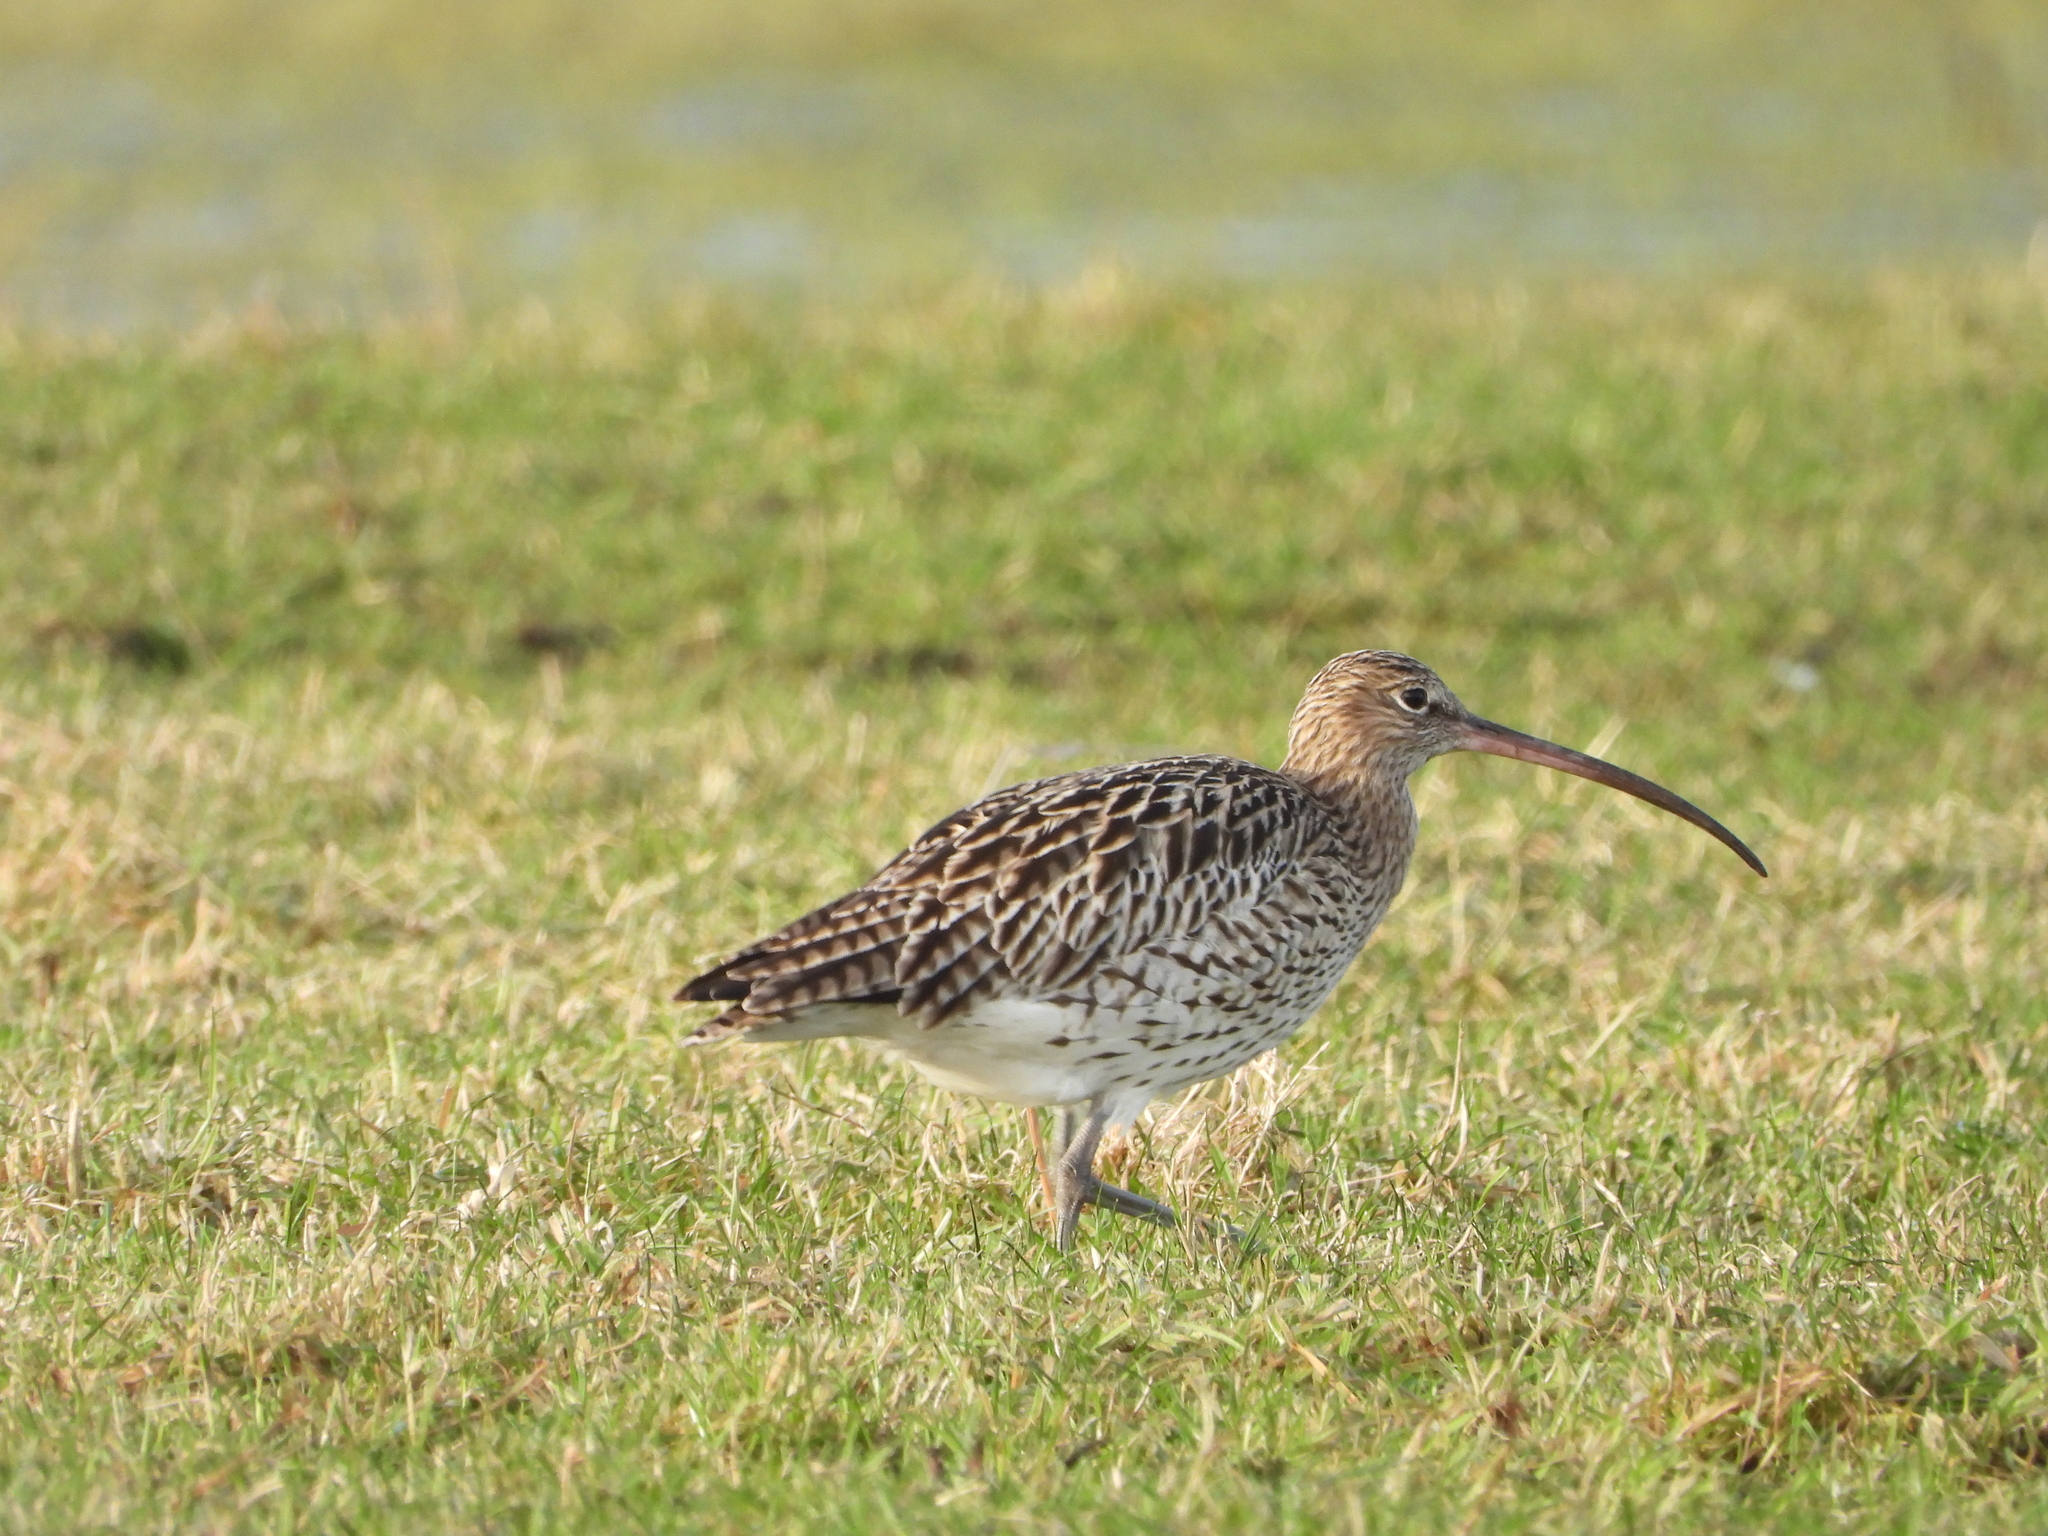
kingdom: Animalia
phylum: Chordata
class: Aves
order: Charadriiformes
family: Scolopacidae
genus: Numenius
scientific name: Numenius arquata
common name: Eurasian curlew
